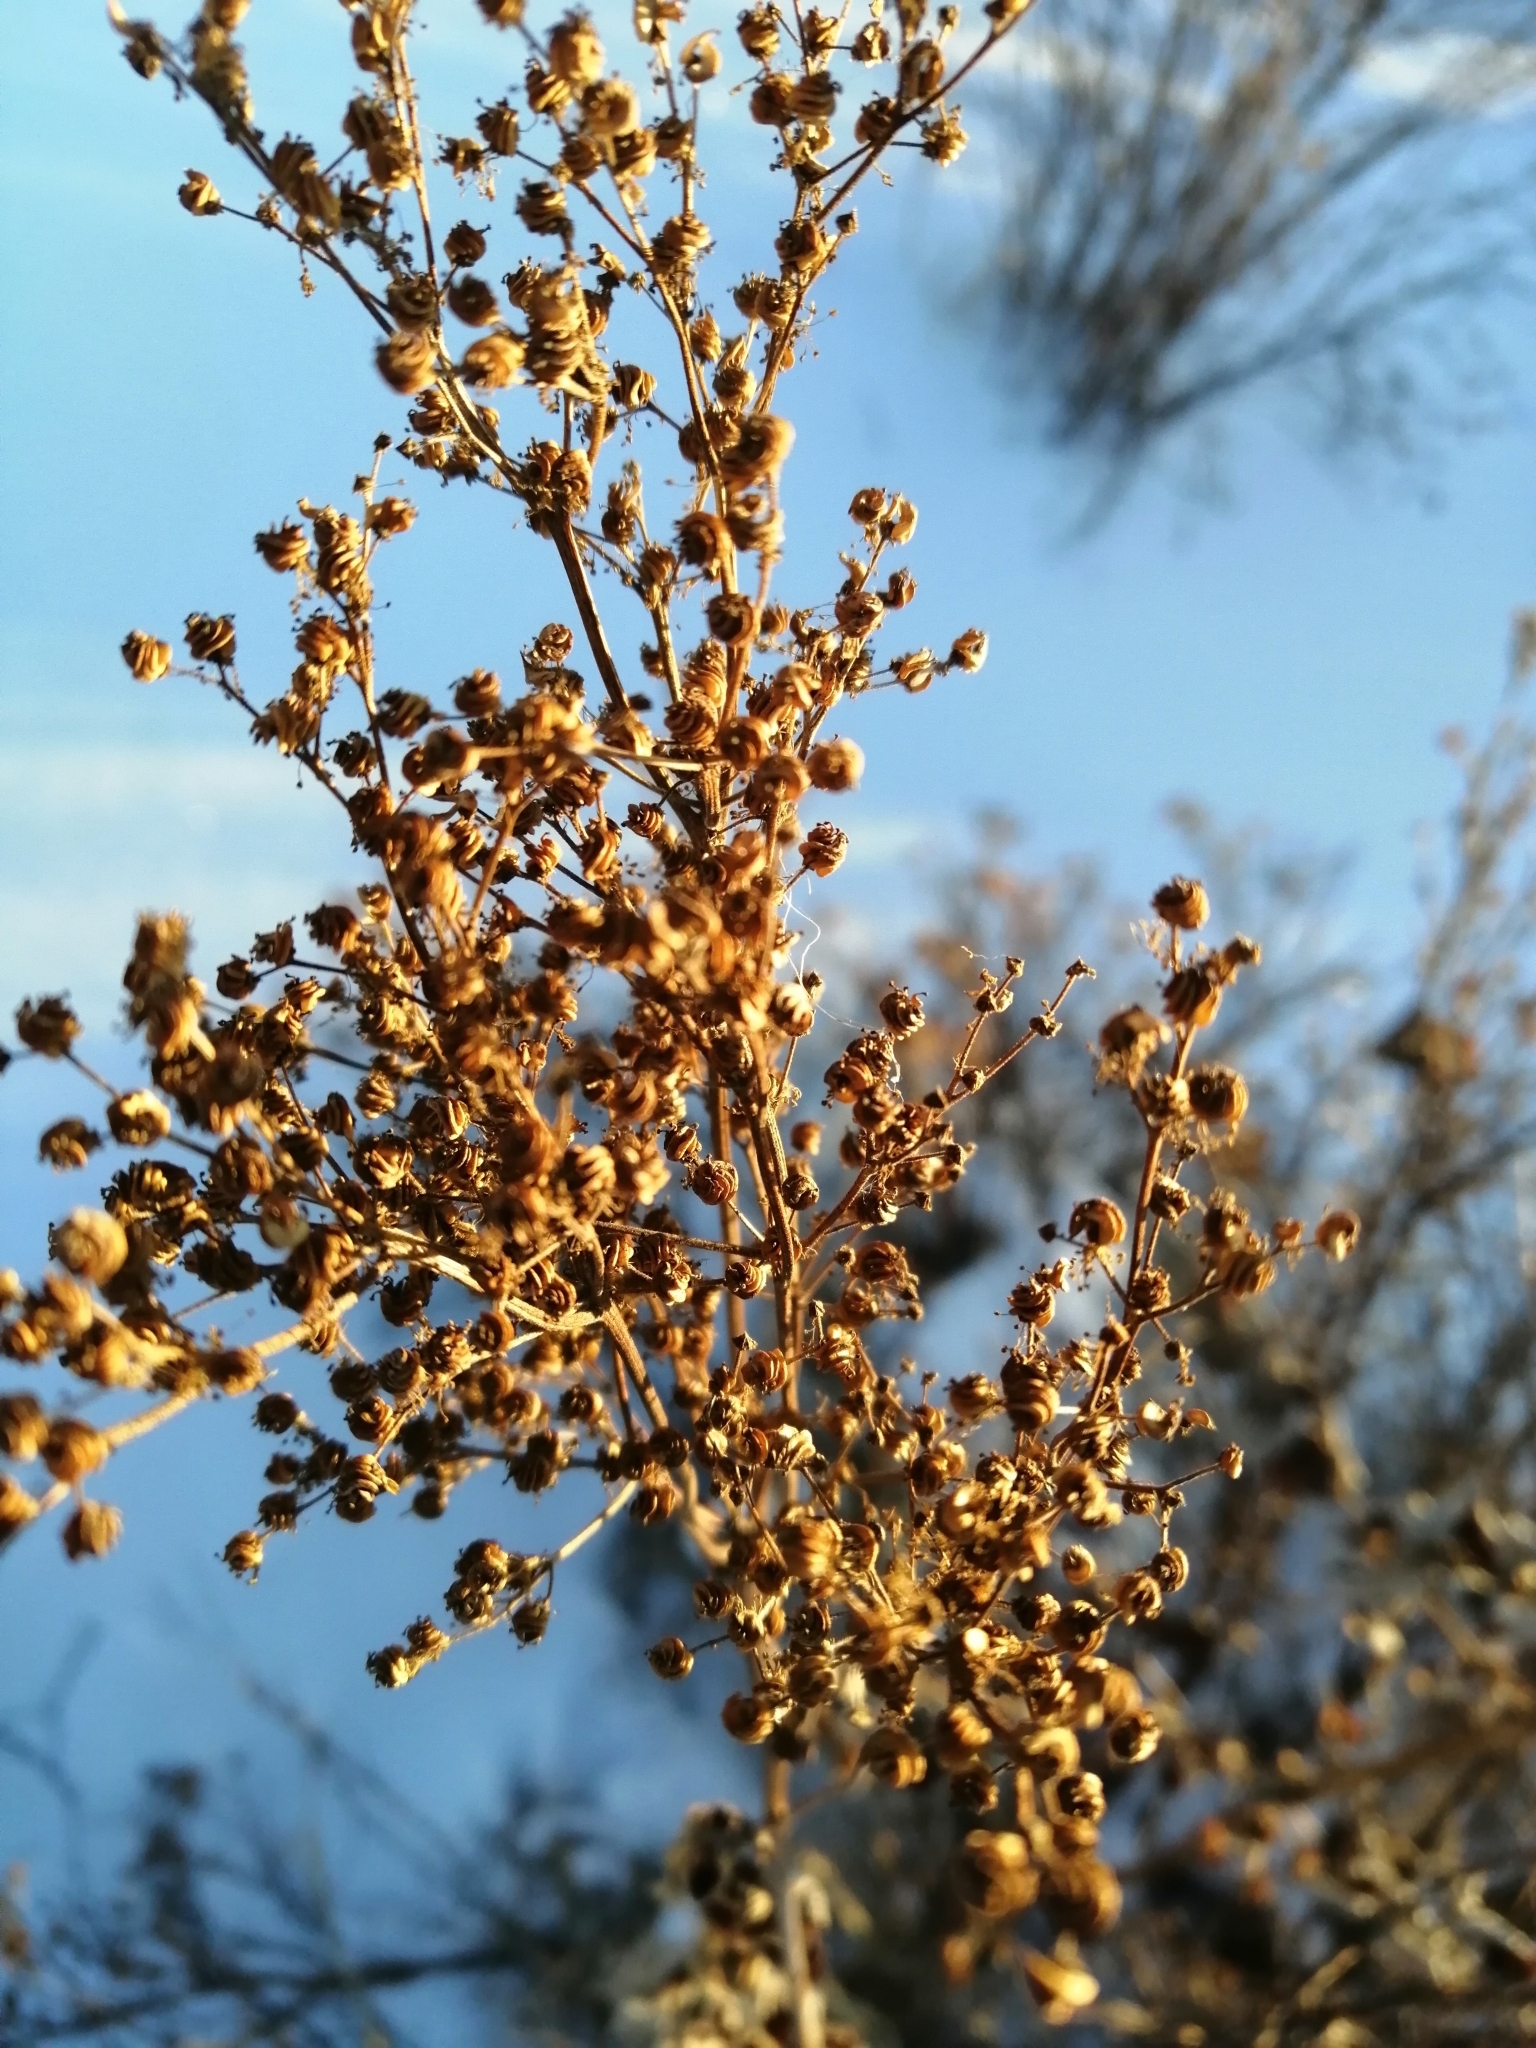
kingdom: Plantae
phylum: Tracheophyta
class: Magnoliopsida
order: Rosales
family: Rosaceae
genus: Filipendula
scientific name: Filipendula ulmaria
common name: Meadowsweet
